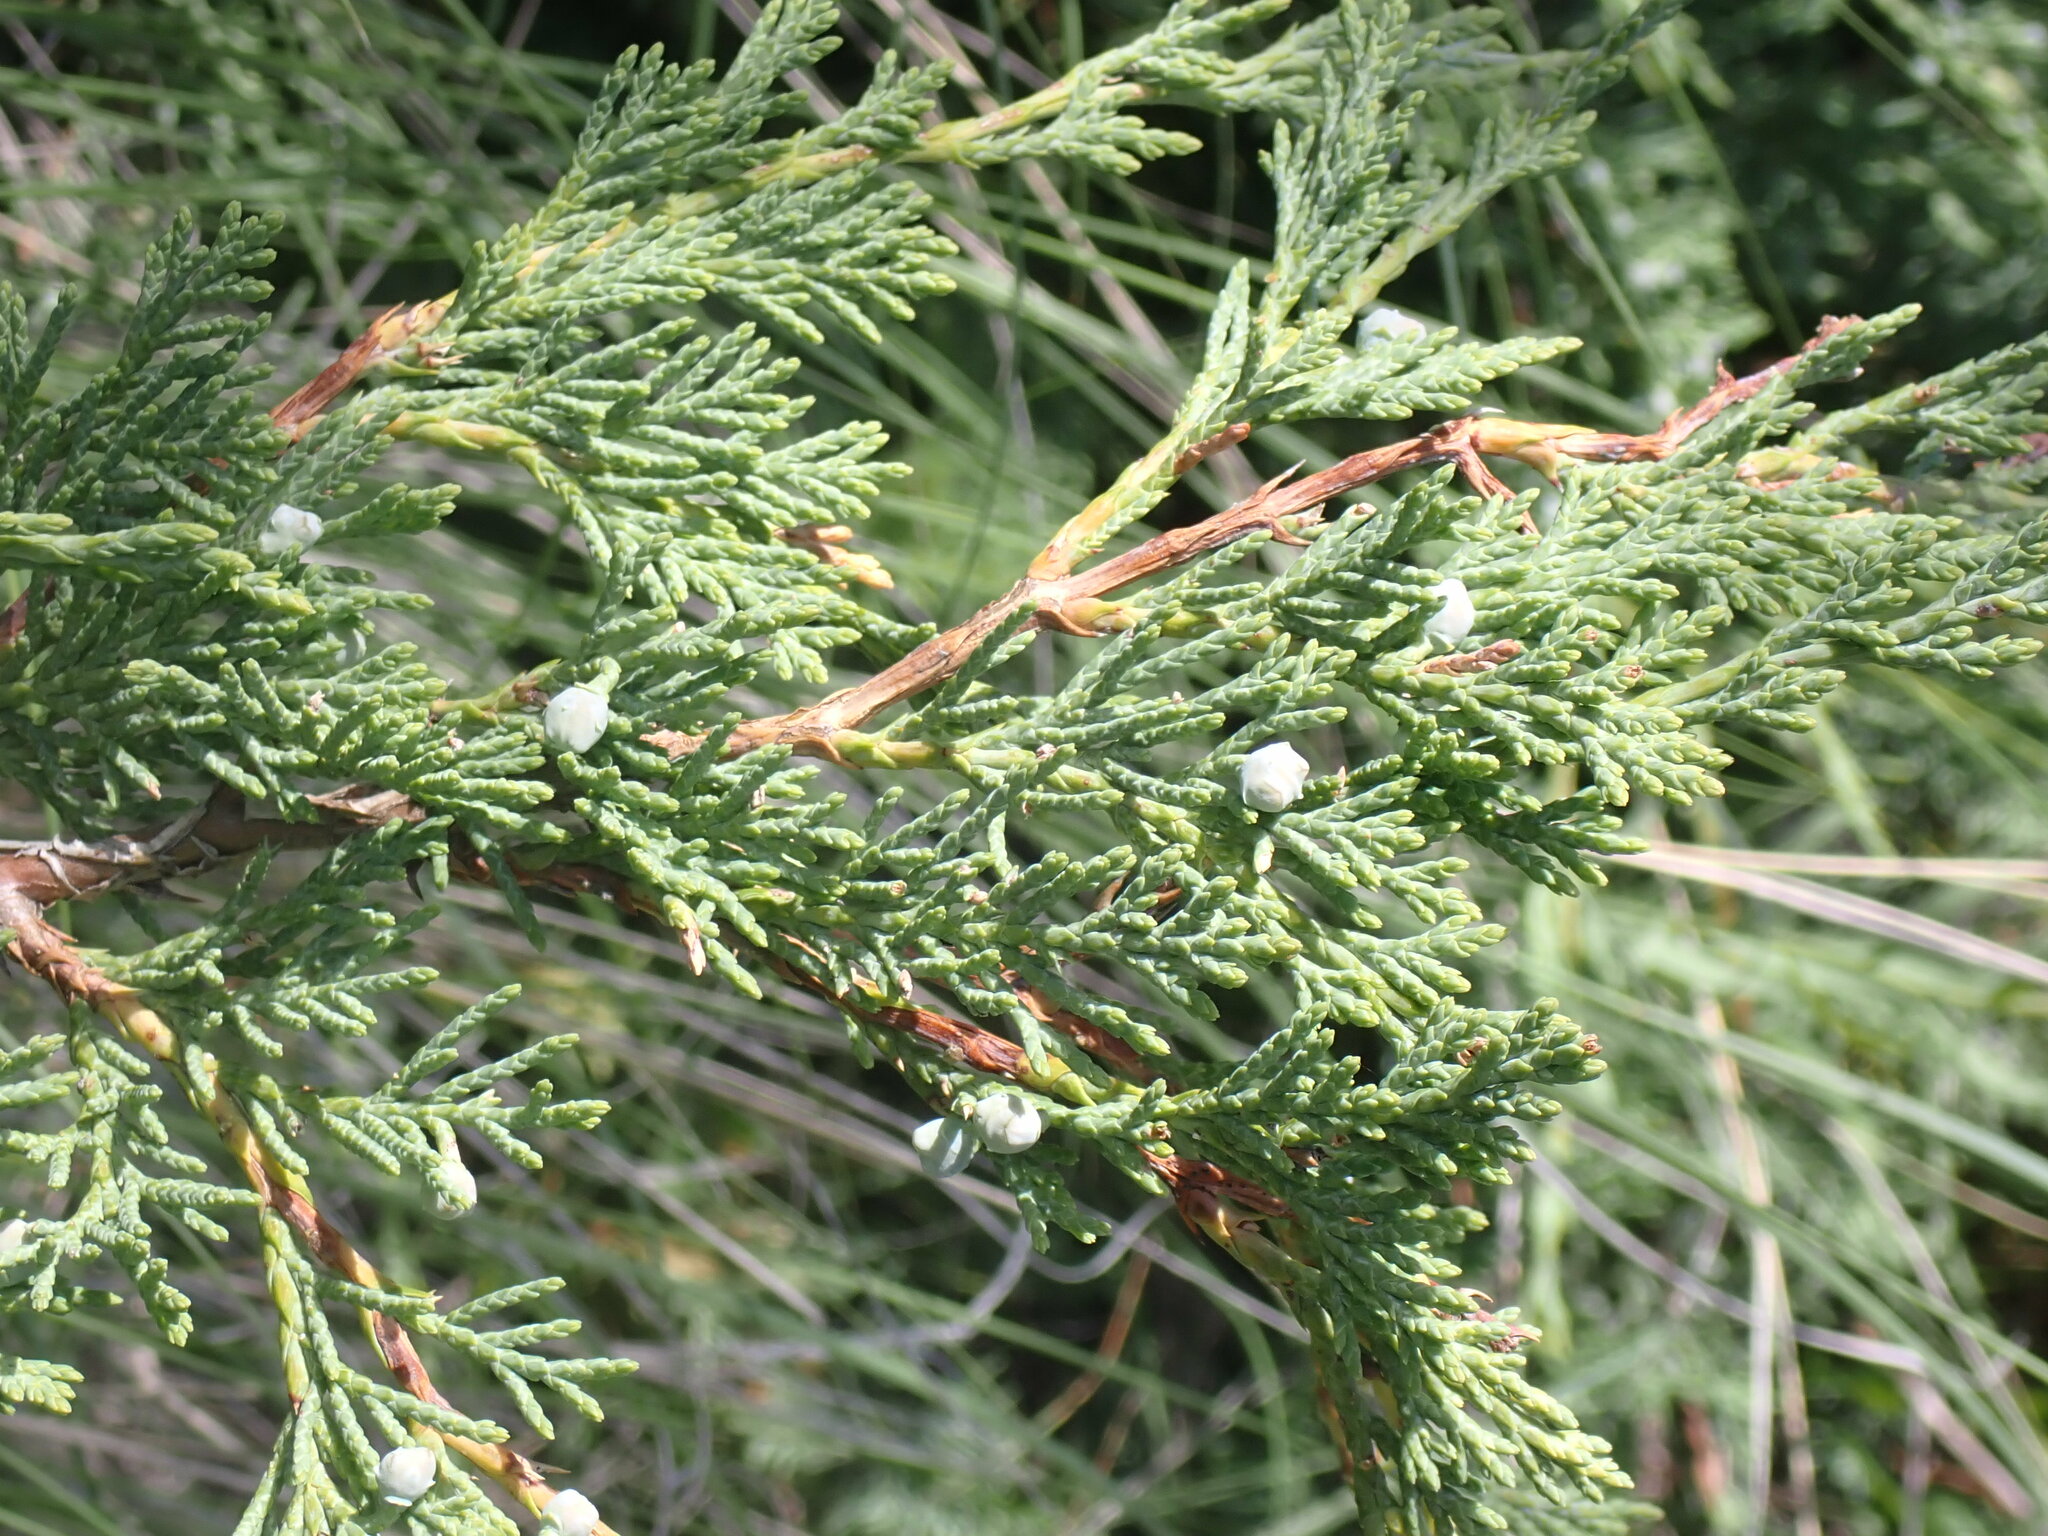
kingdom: Plantae
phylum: Tracheophyta
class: Pinopsida
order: Pinales
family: Cupressaceae
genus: Juniperus
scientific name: Juniperus scopulorum
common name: Rocky mountain juniper
